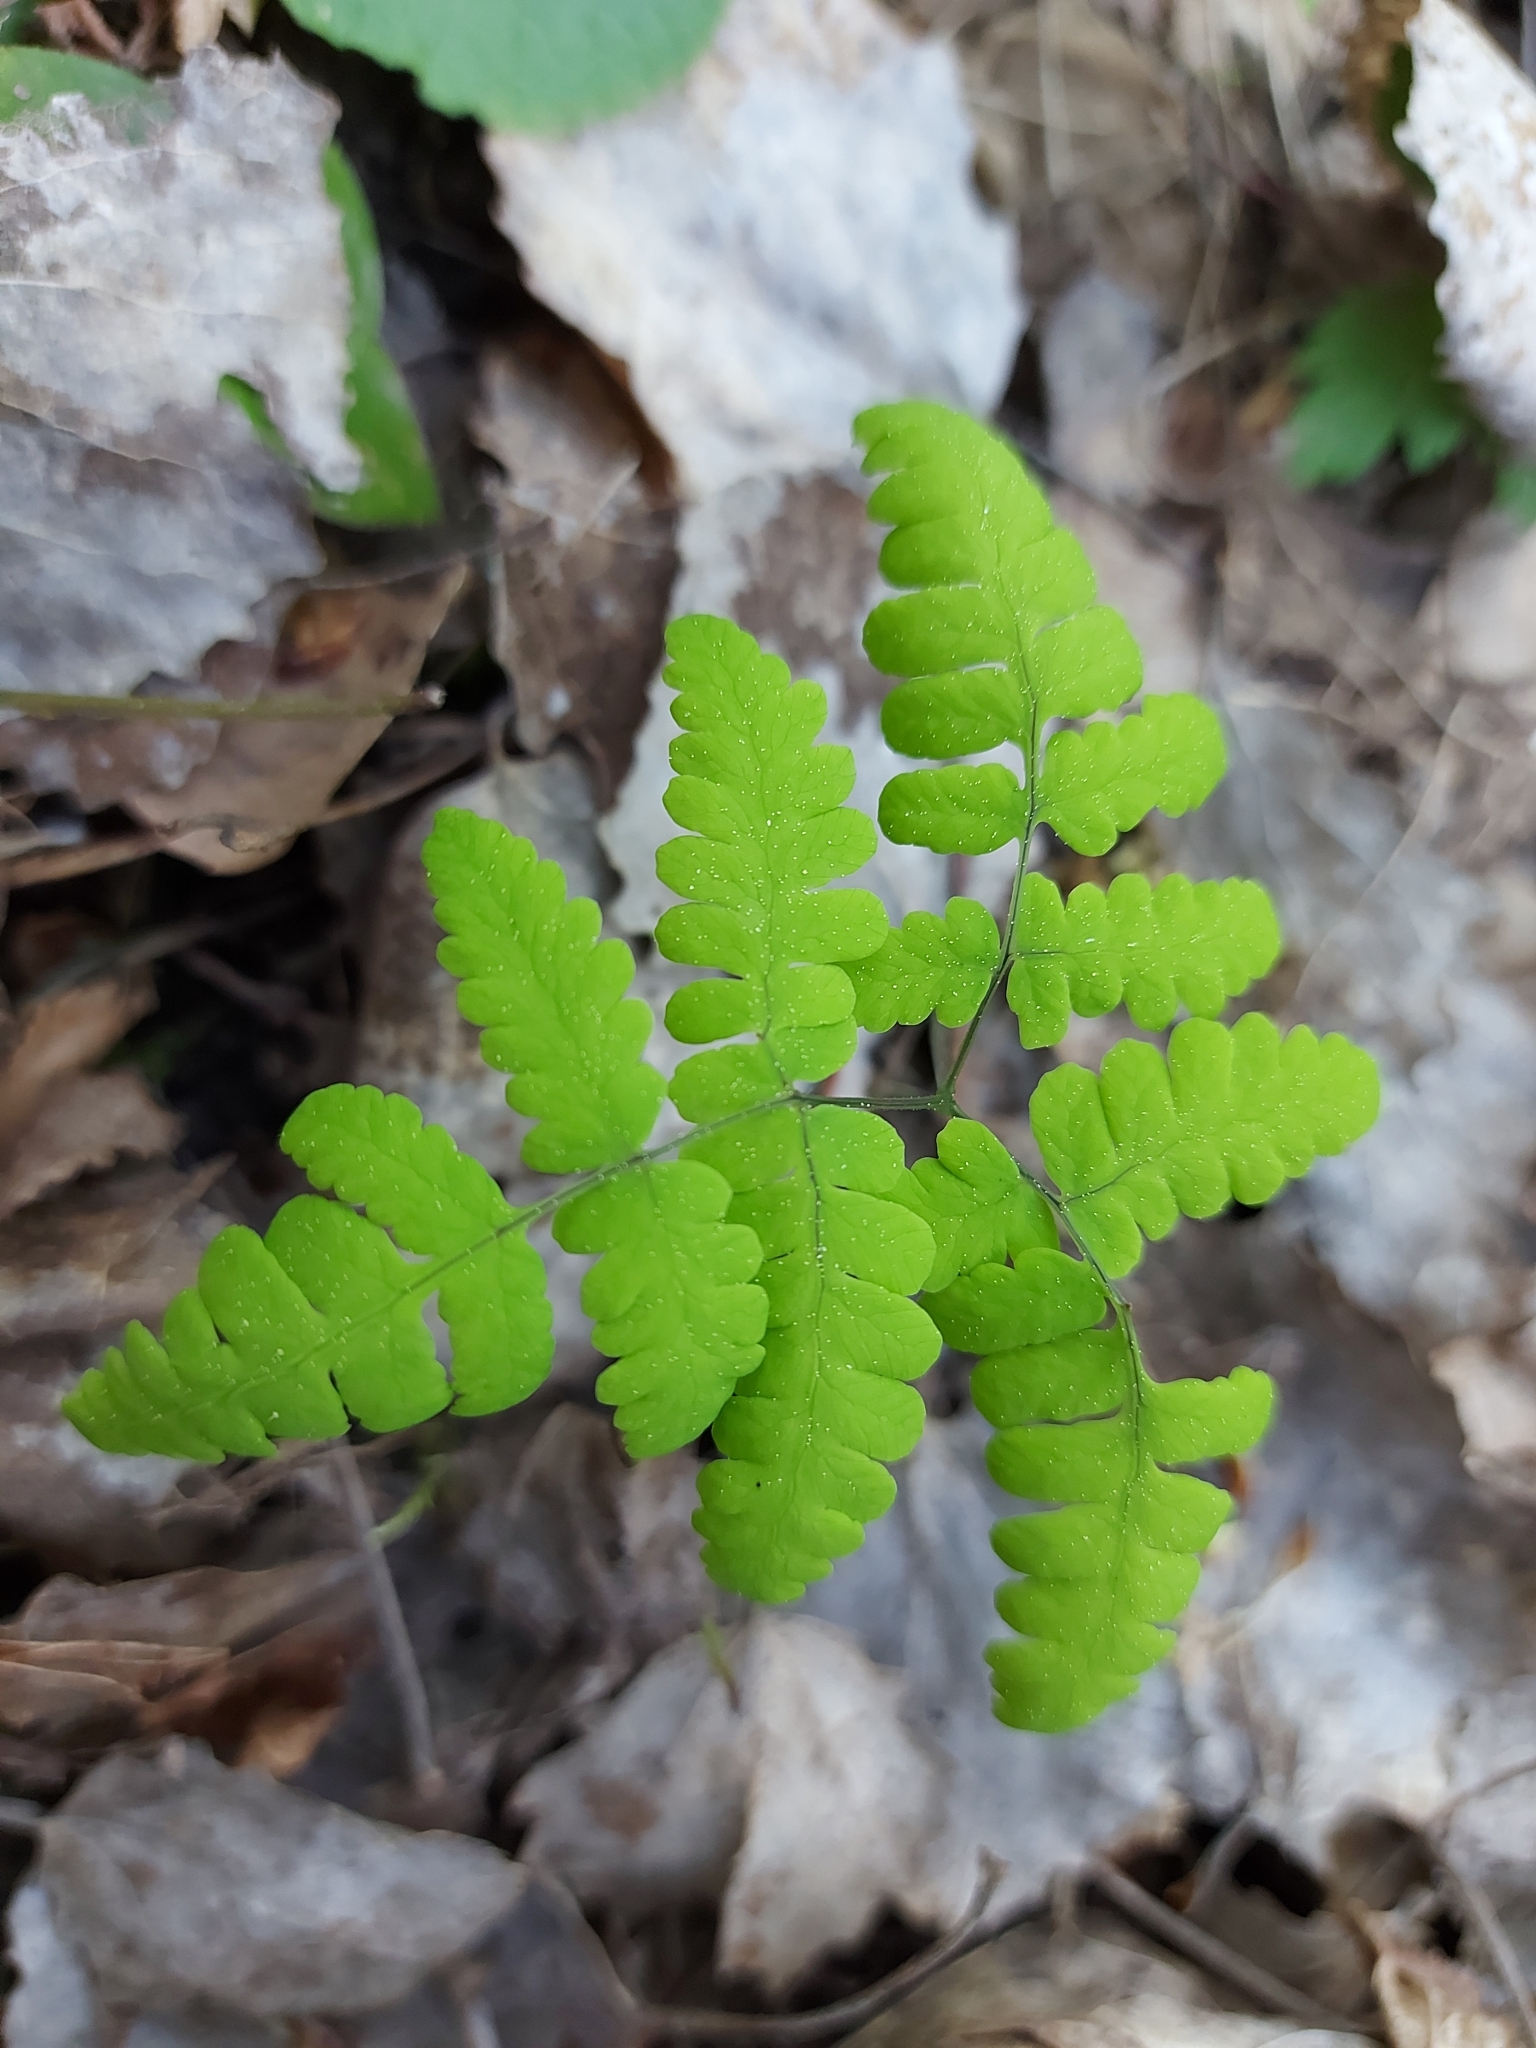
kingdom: Plantae
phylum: Tracheophyta
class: Polypodiopsida
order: Polypodiales
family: Cystopteridaceae
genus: Gymnocarpium
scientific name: Gymnocarpium dryopteris
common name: Oak fern
